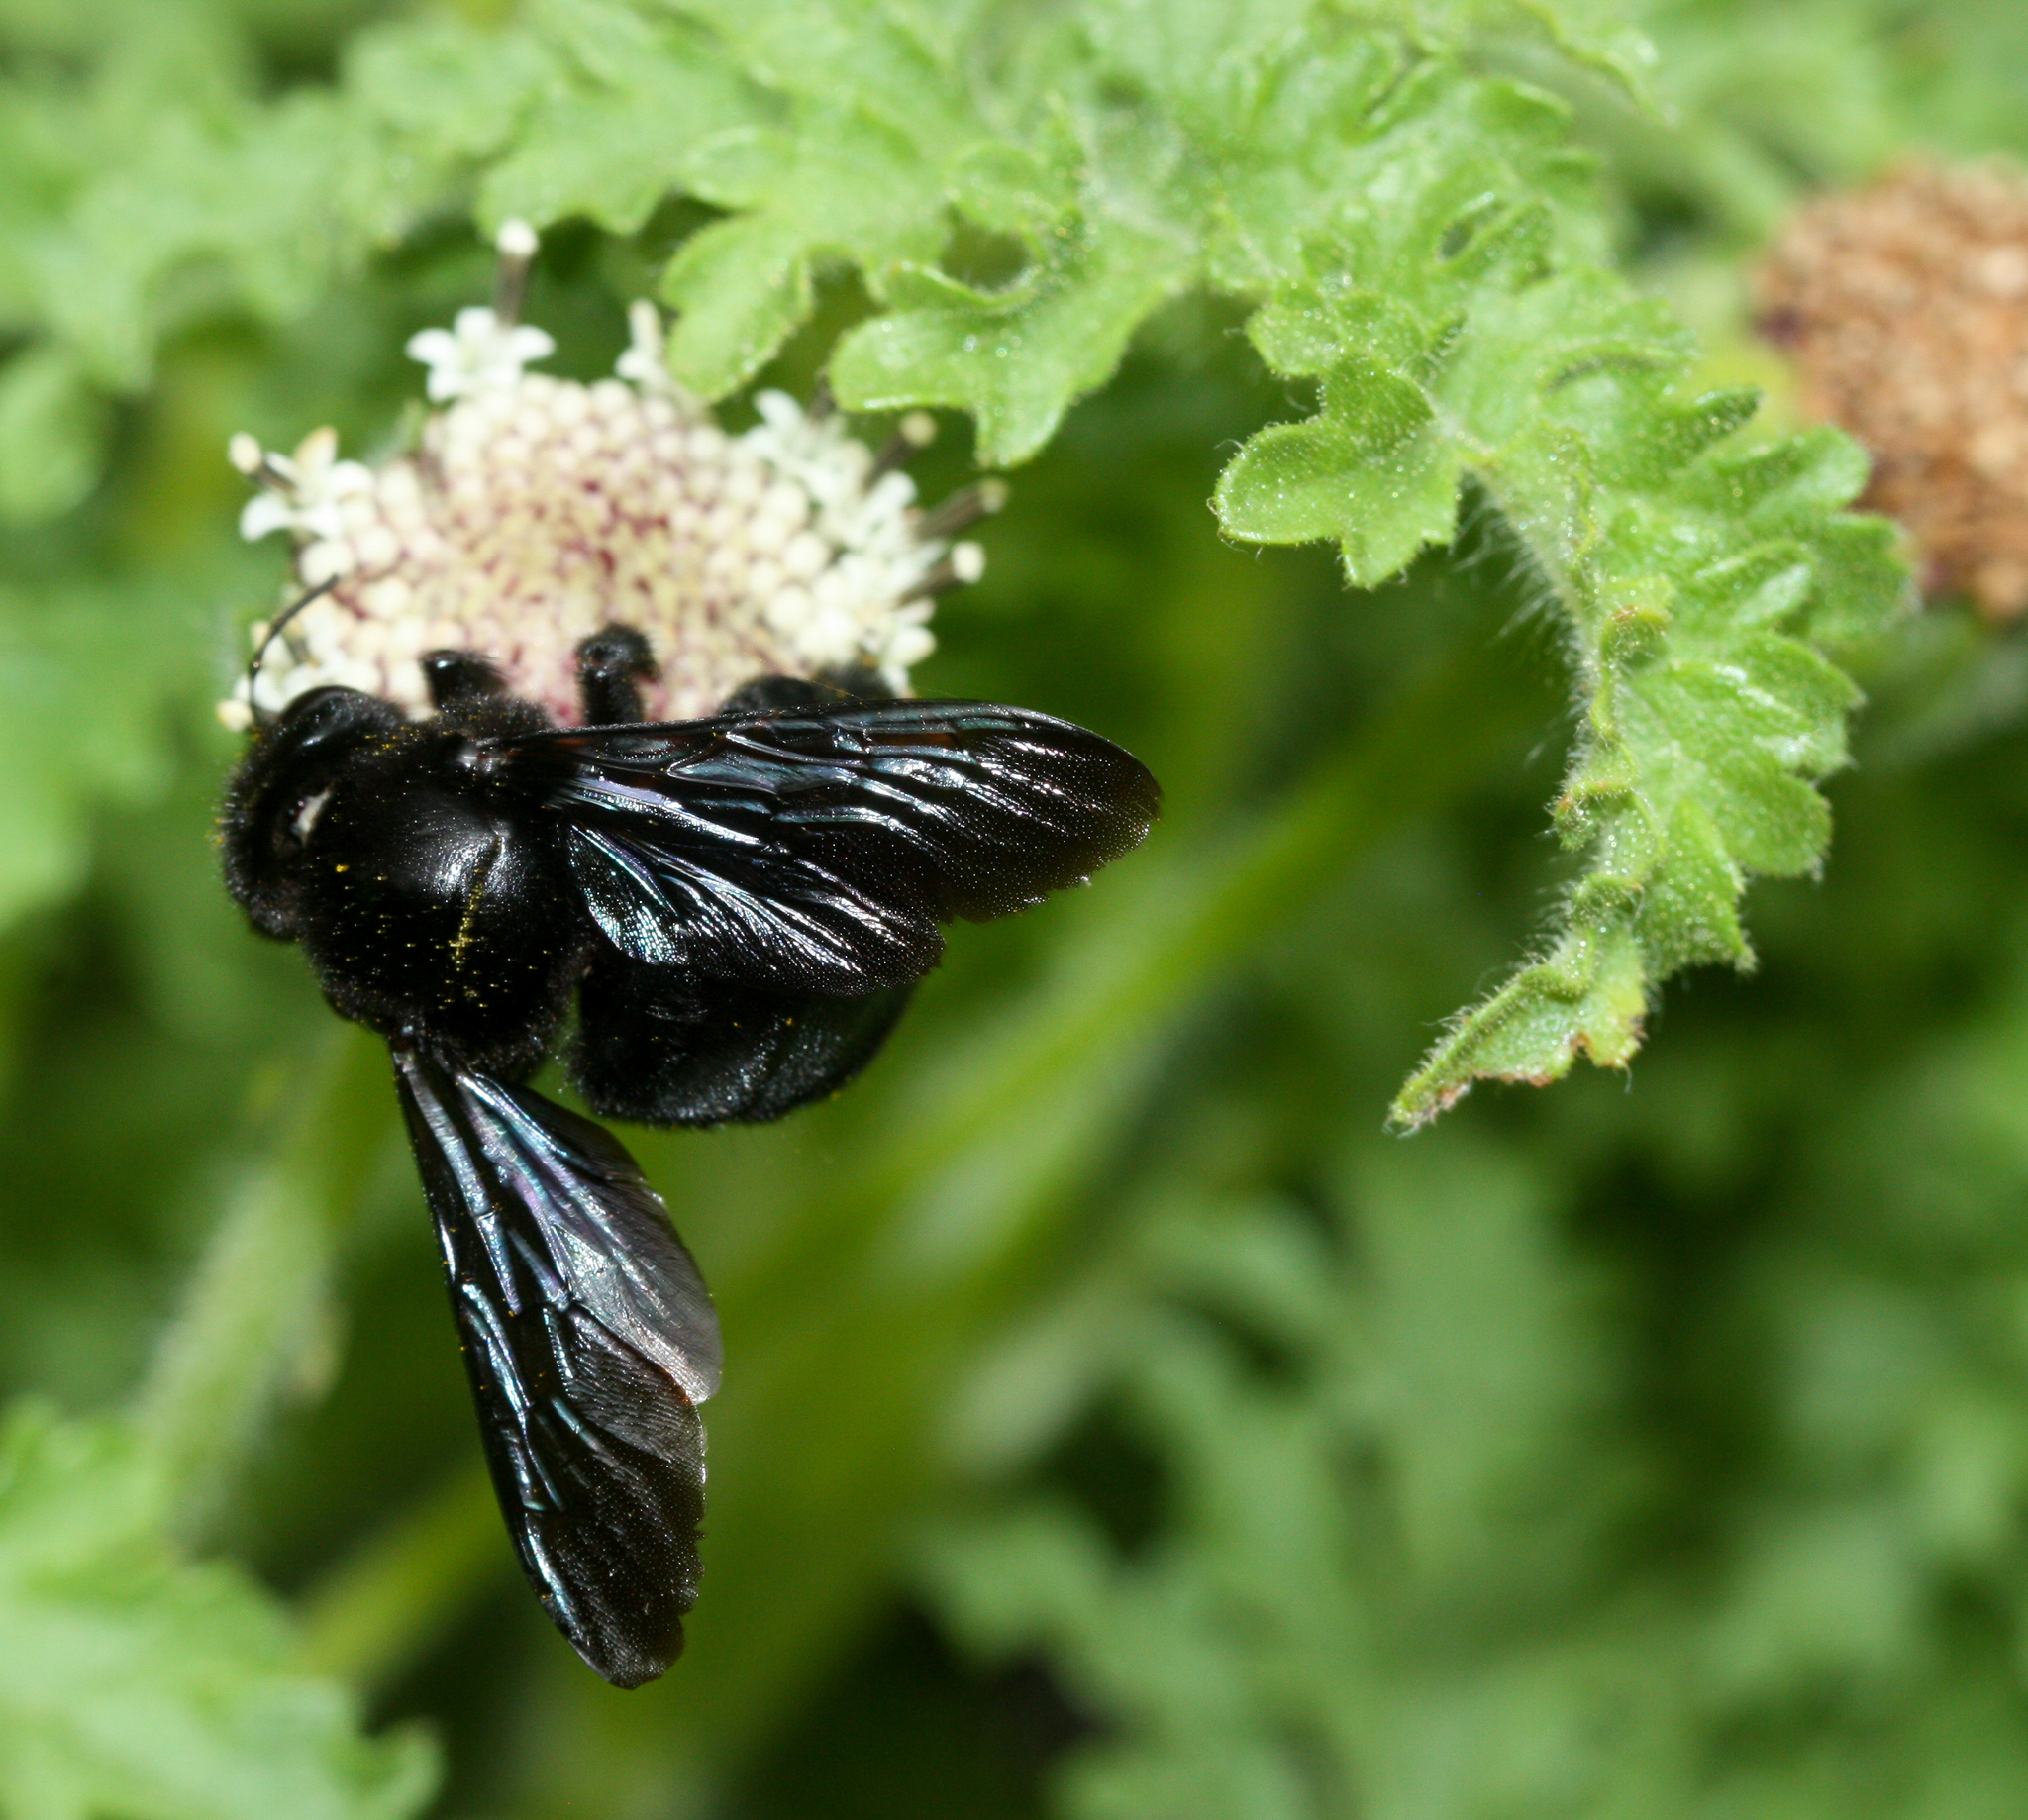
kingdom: Animalia
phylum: Arthropoda
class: Insecta
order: Hymenoptera
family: Apidae
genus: Xylocopa
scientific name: Xylocopa darwini
